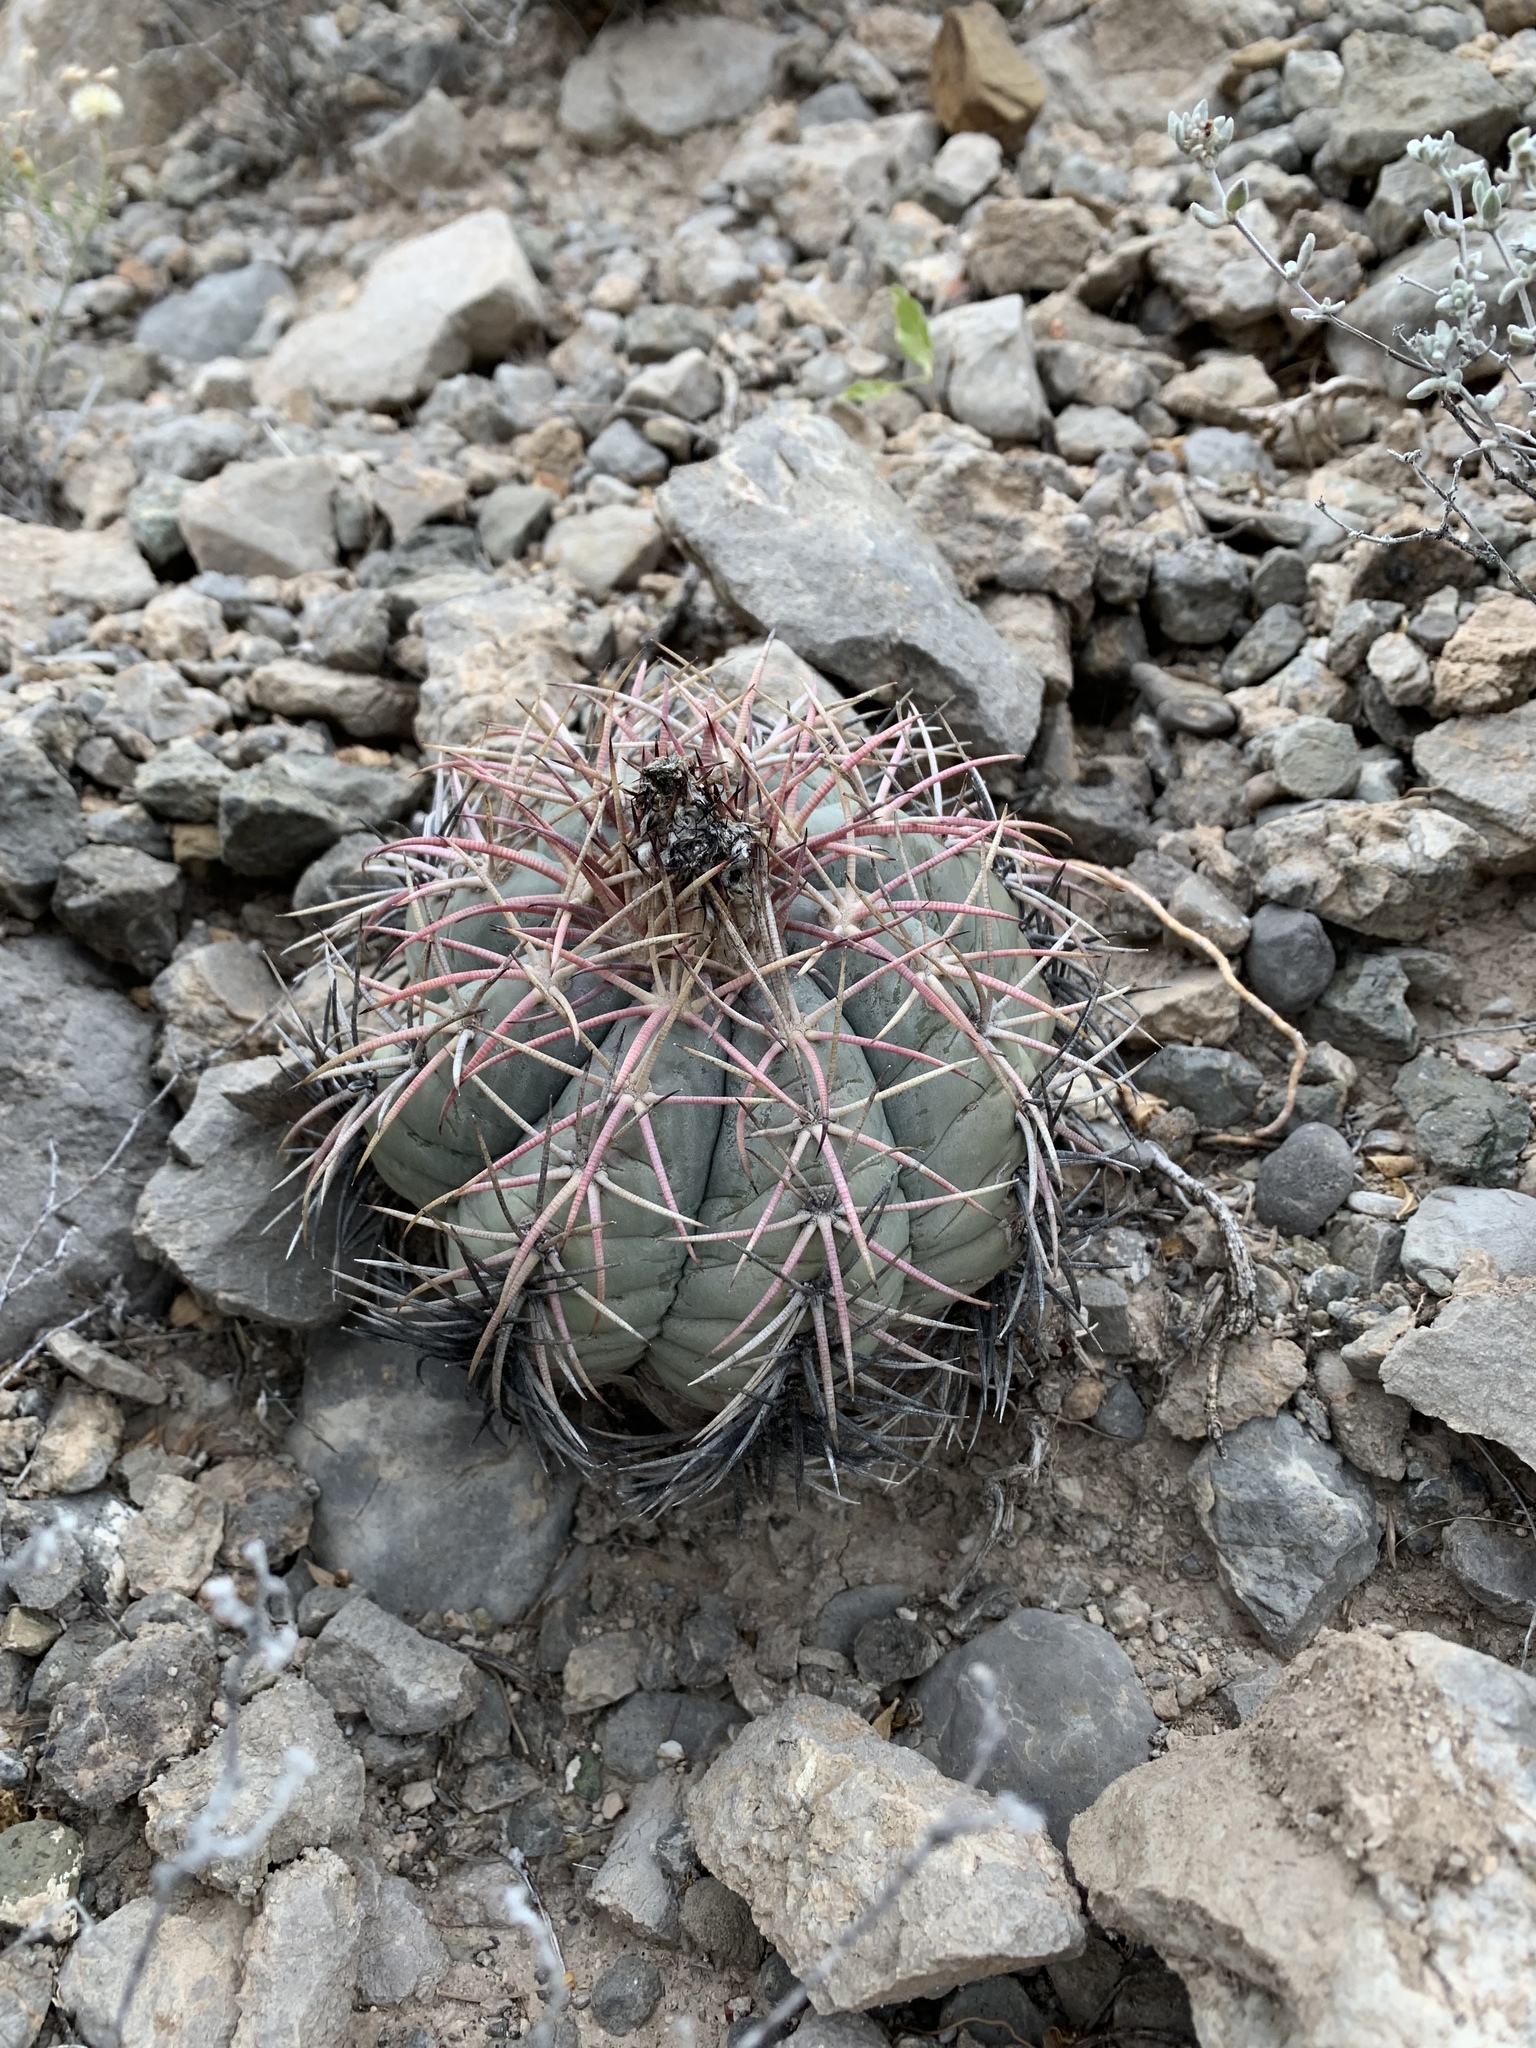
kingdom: Plantae
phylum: Tracheophyta
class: Magnoliopsida
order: Caryophyllales
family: Cactaceae
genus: Echinocactus
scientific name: Echinocactus horizonthalonius
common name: Devilshead
